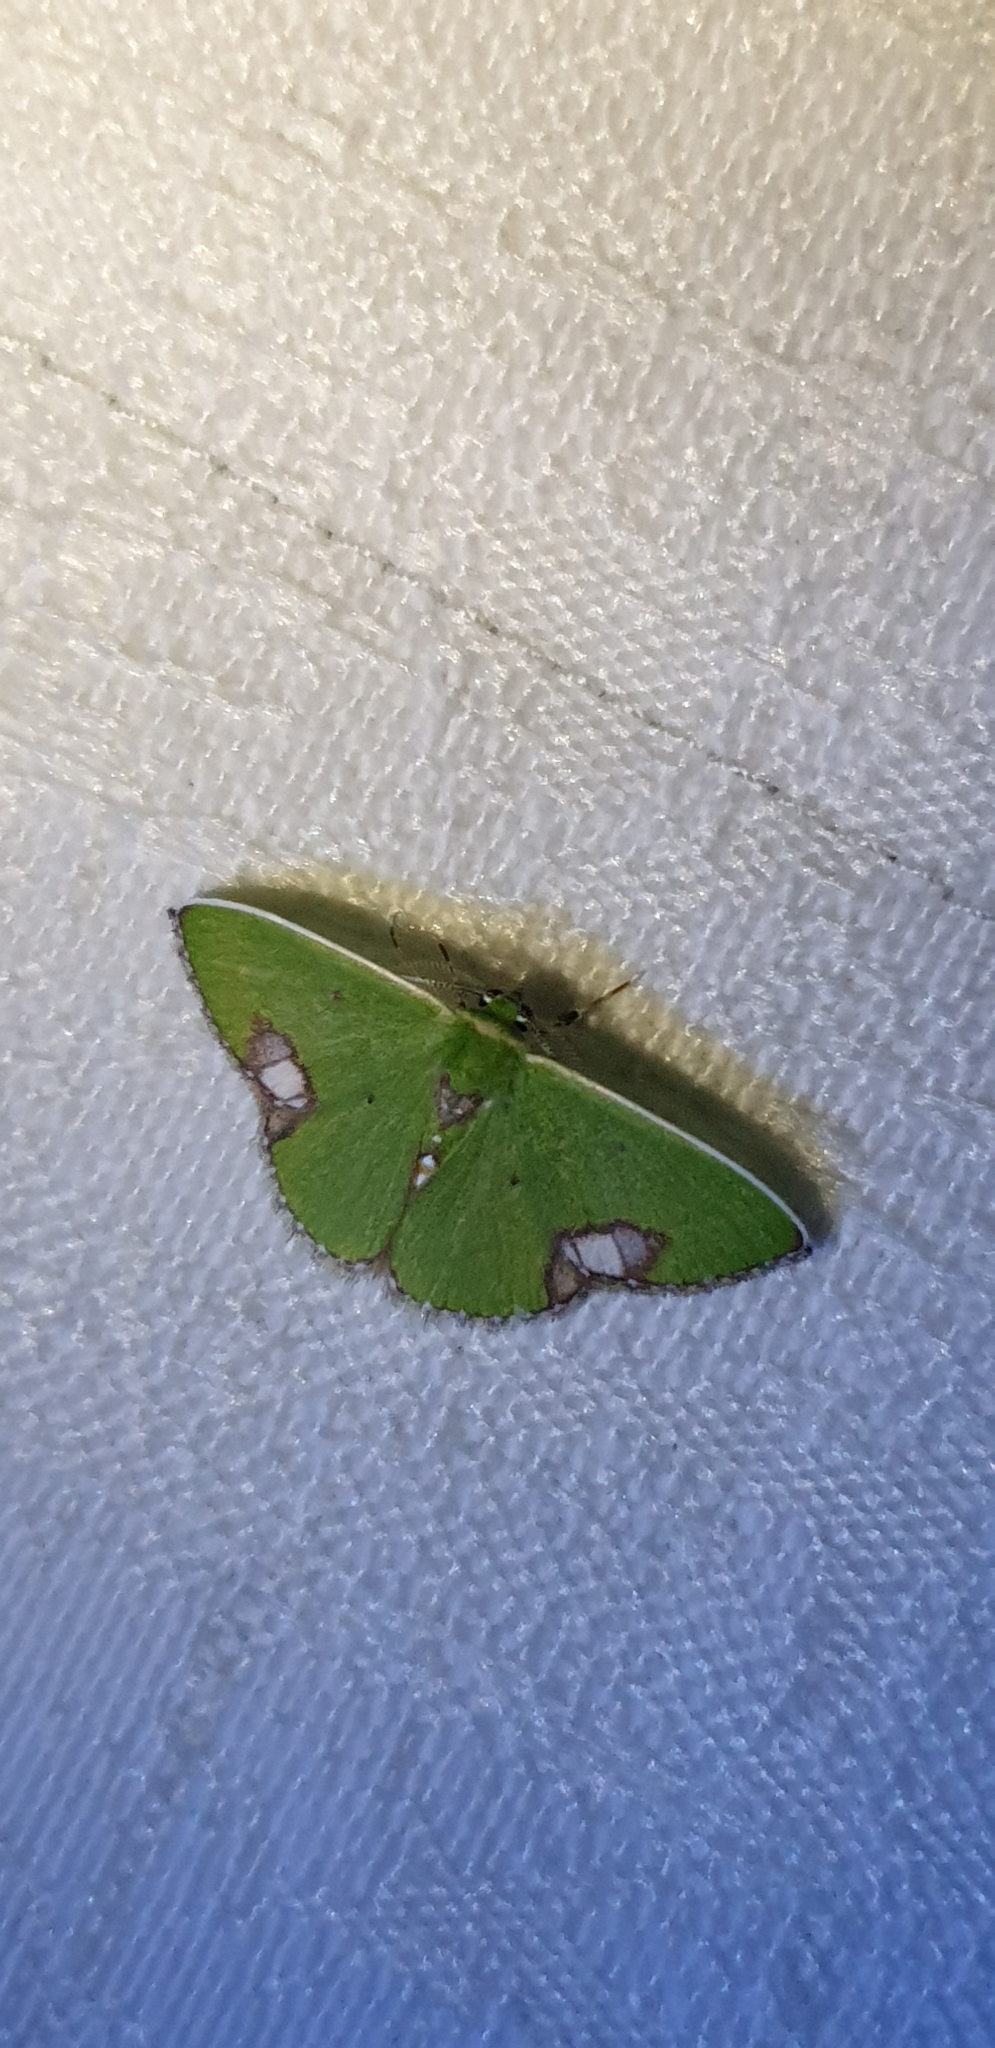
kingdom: Animalia
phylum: Arthropoda
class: Insecta
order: Lepidoptera
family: Geometridae
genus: Comibaena
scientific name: Comibaena mariae
